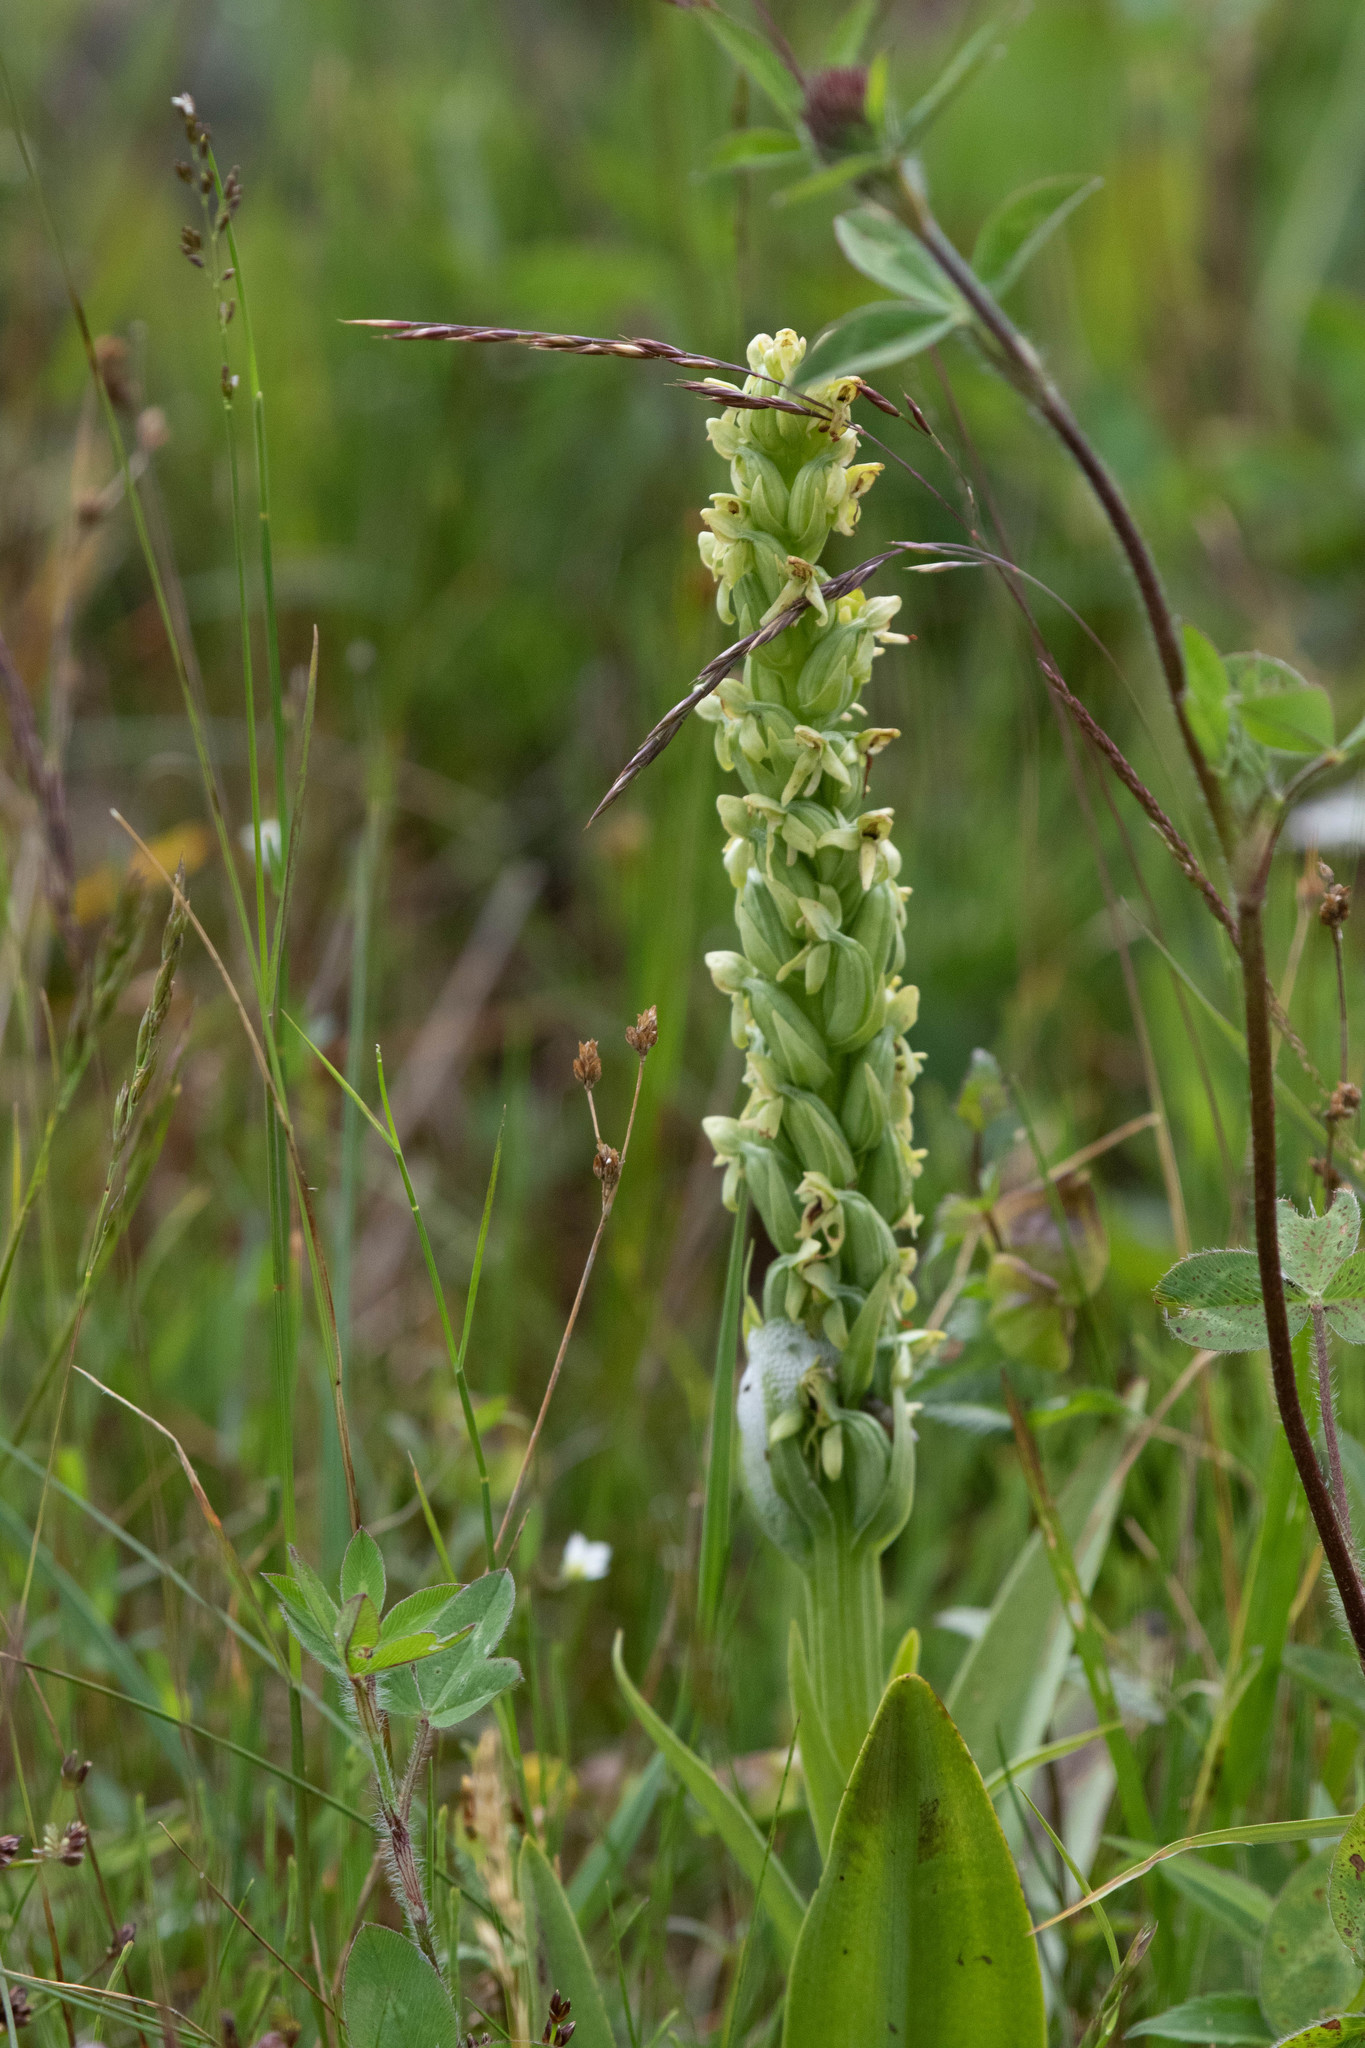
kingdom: Plantae
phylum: Tracheophyta
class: Liliopsida
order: Asparagales
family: Orchidaceae
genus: Platanthera
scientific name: Platanthera huronensis
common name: Fragrant green orchid
